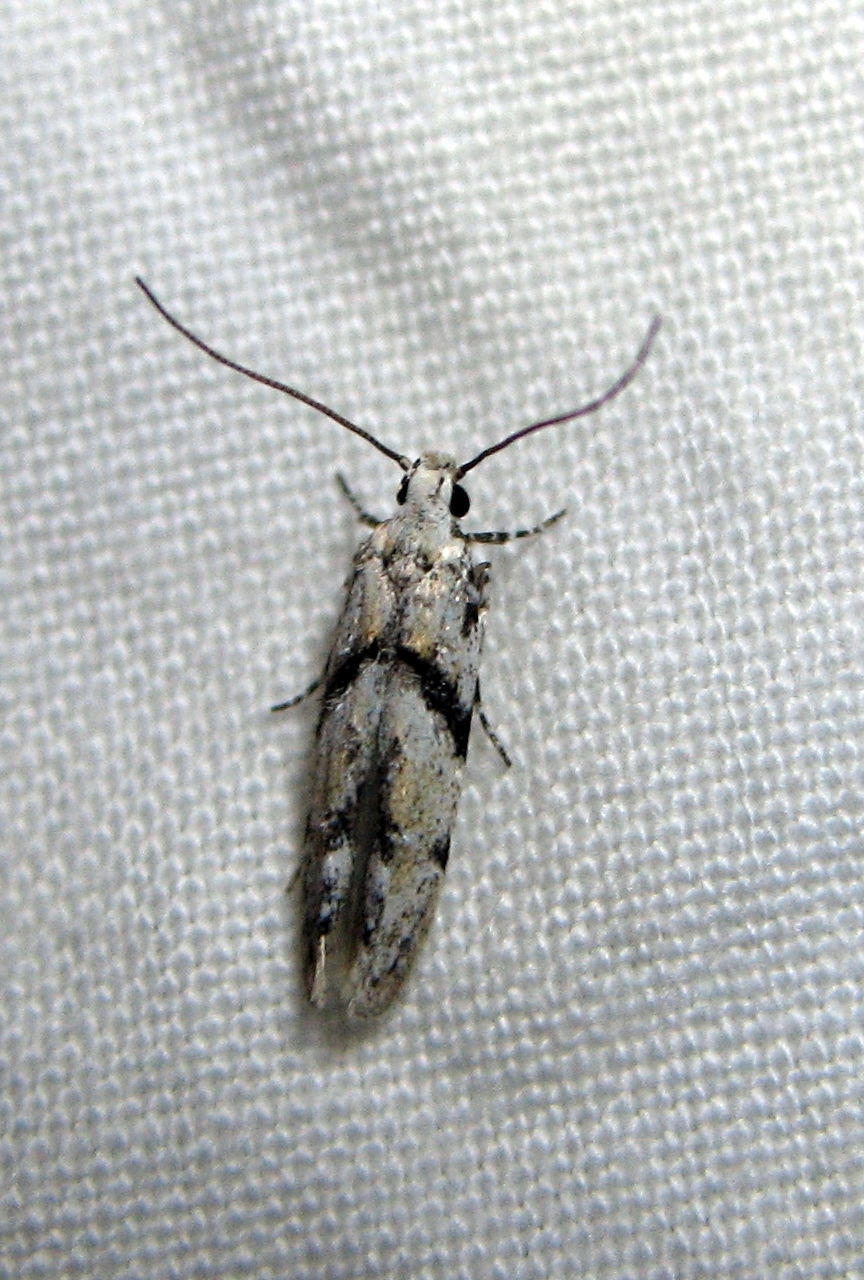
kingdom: Animalia
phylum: Arthropoda
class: Insecta
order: Lepidoptera
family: Gelechiidae
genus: Arogalea
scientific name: Arogalea cristifasciella
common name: White stripe-backed moth
